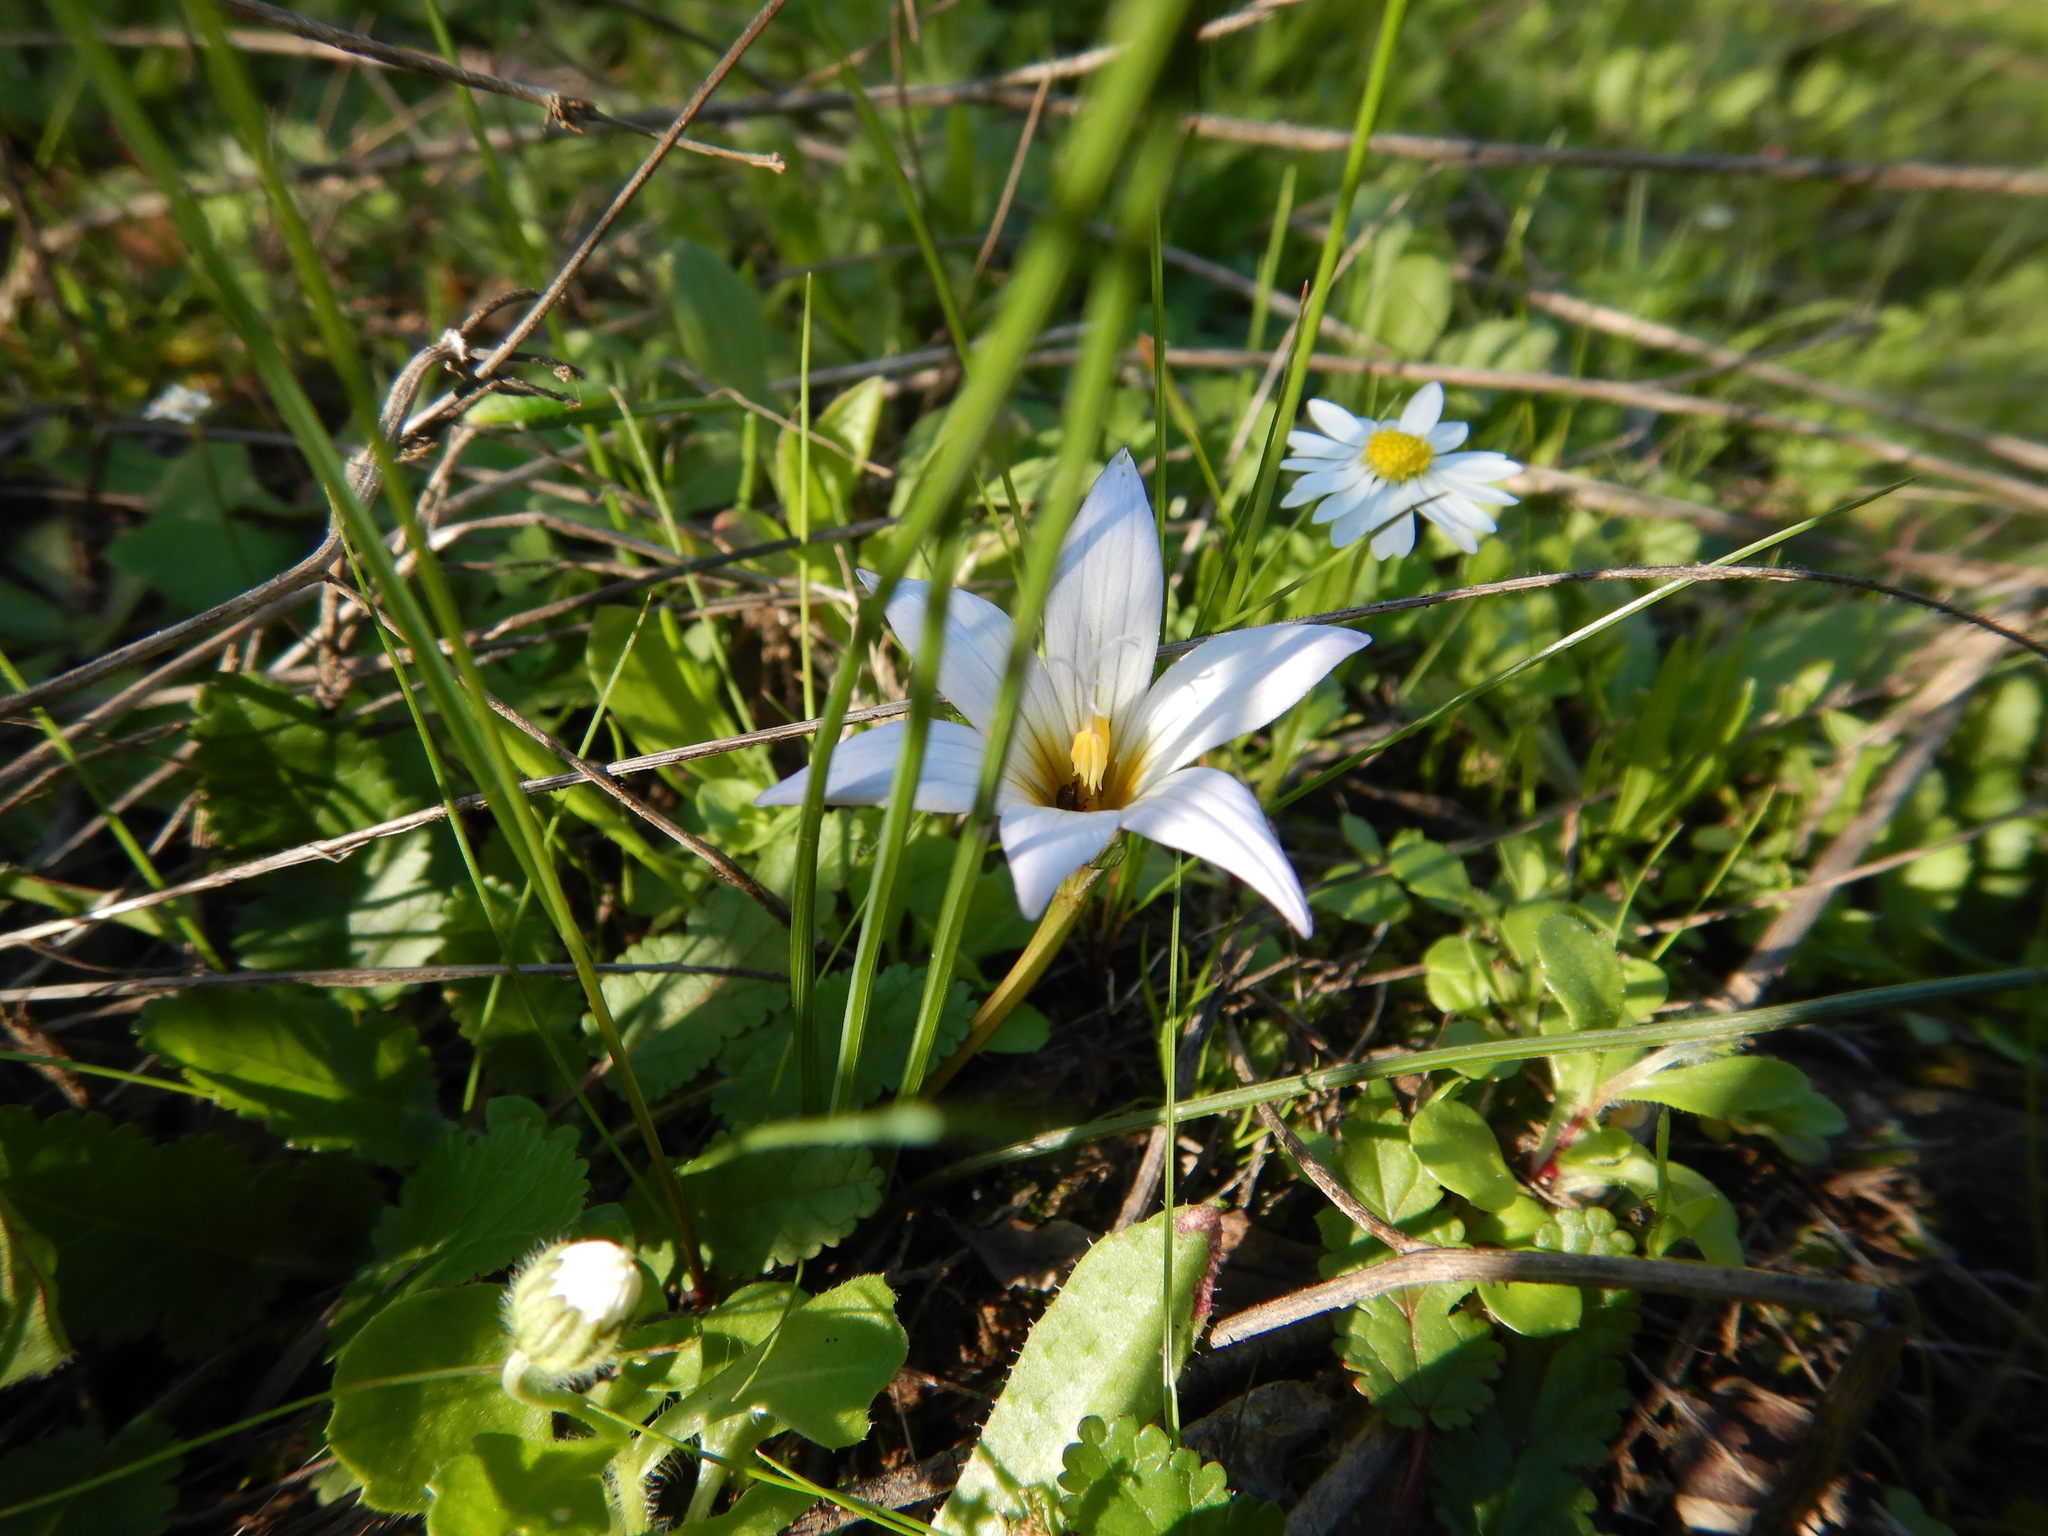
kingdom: Plantae
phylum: Tracheophyta
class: Liliopsida
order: Asparagales
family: Iridaceae
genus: Romulea
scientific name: Romulea bulbocodium
